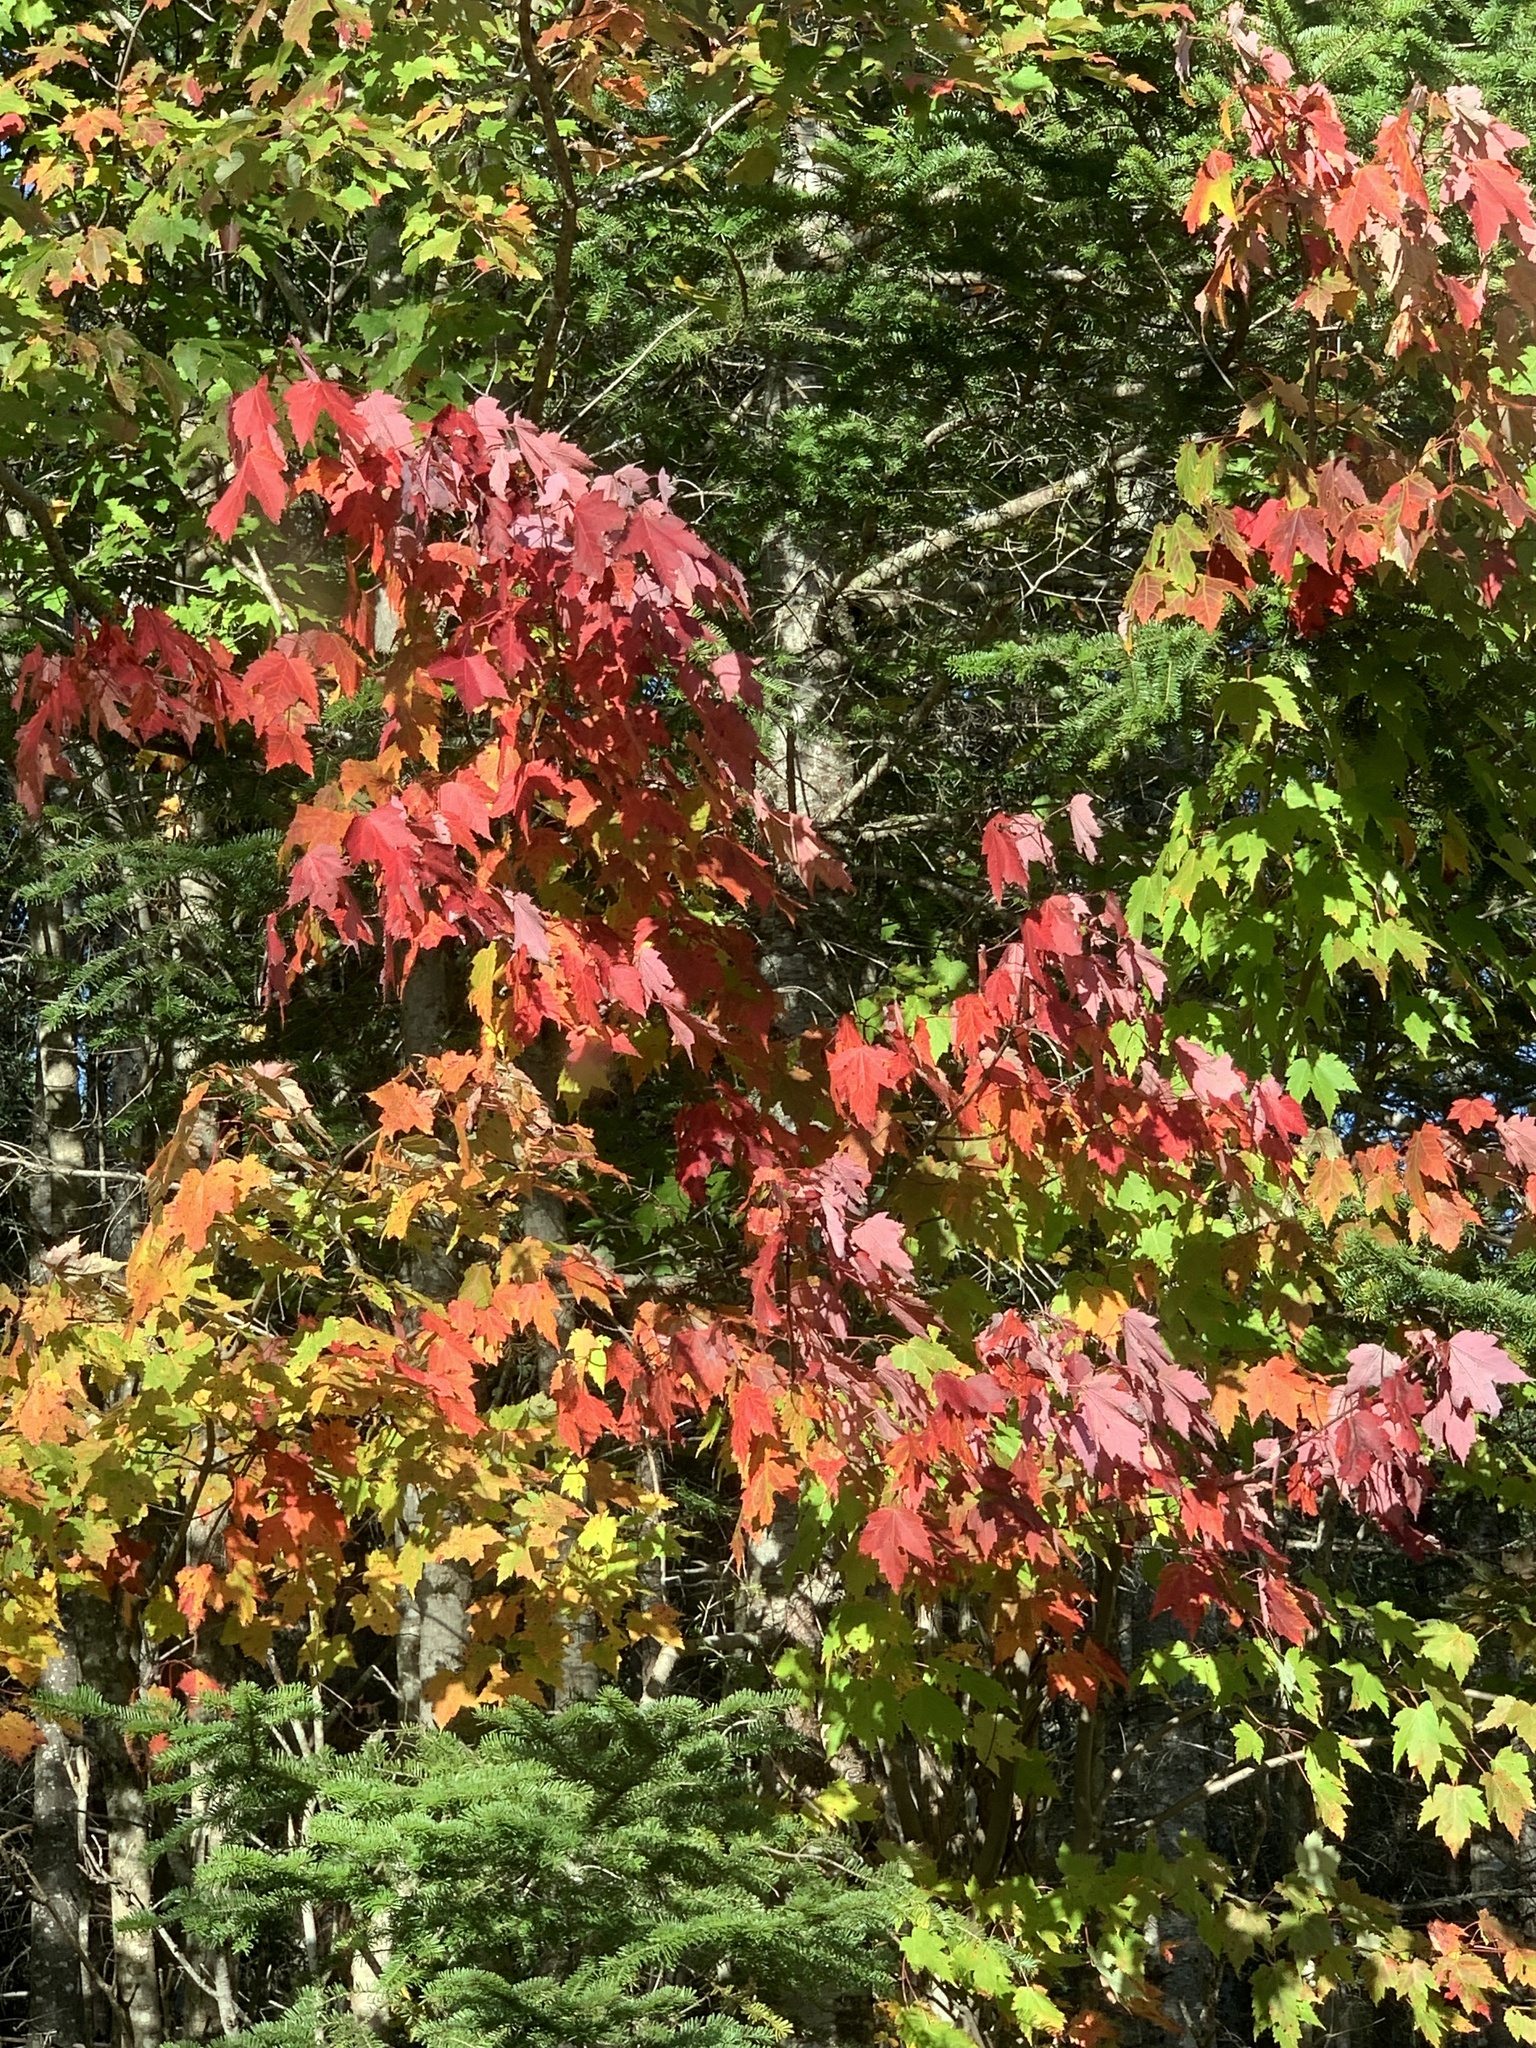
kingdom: Plantae
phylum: Tracheophyta
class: Magnoliopsida
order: Sapindales
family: Sapindaceae
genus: Acer
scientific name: Acer rubrum
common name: Red maple
